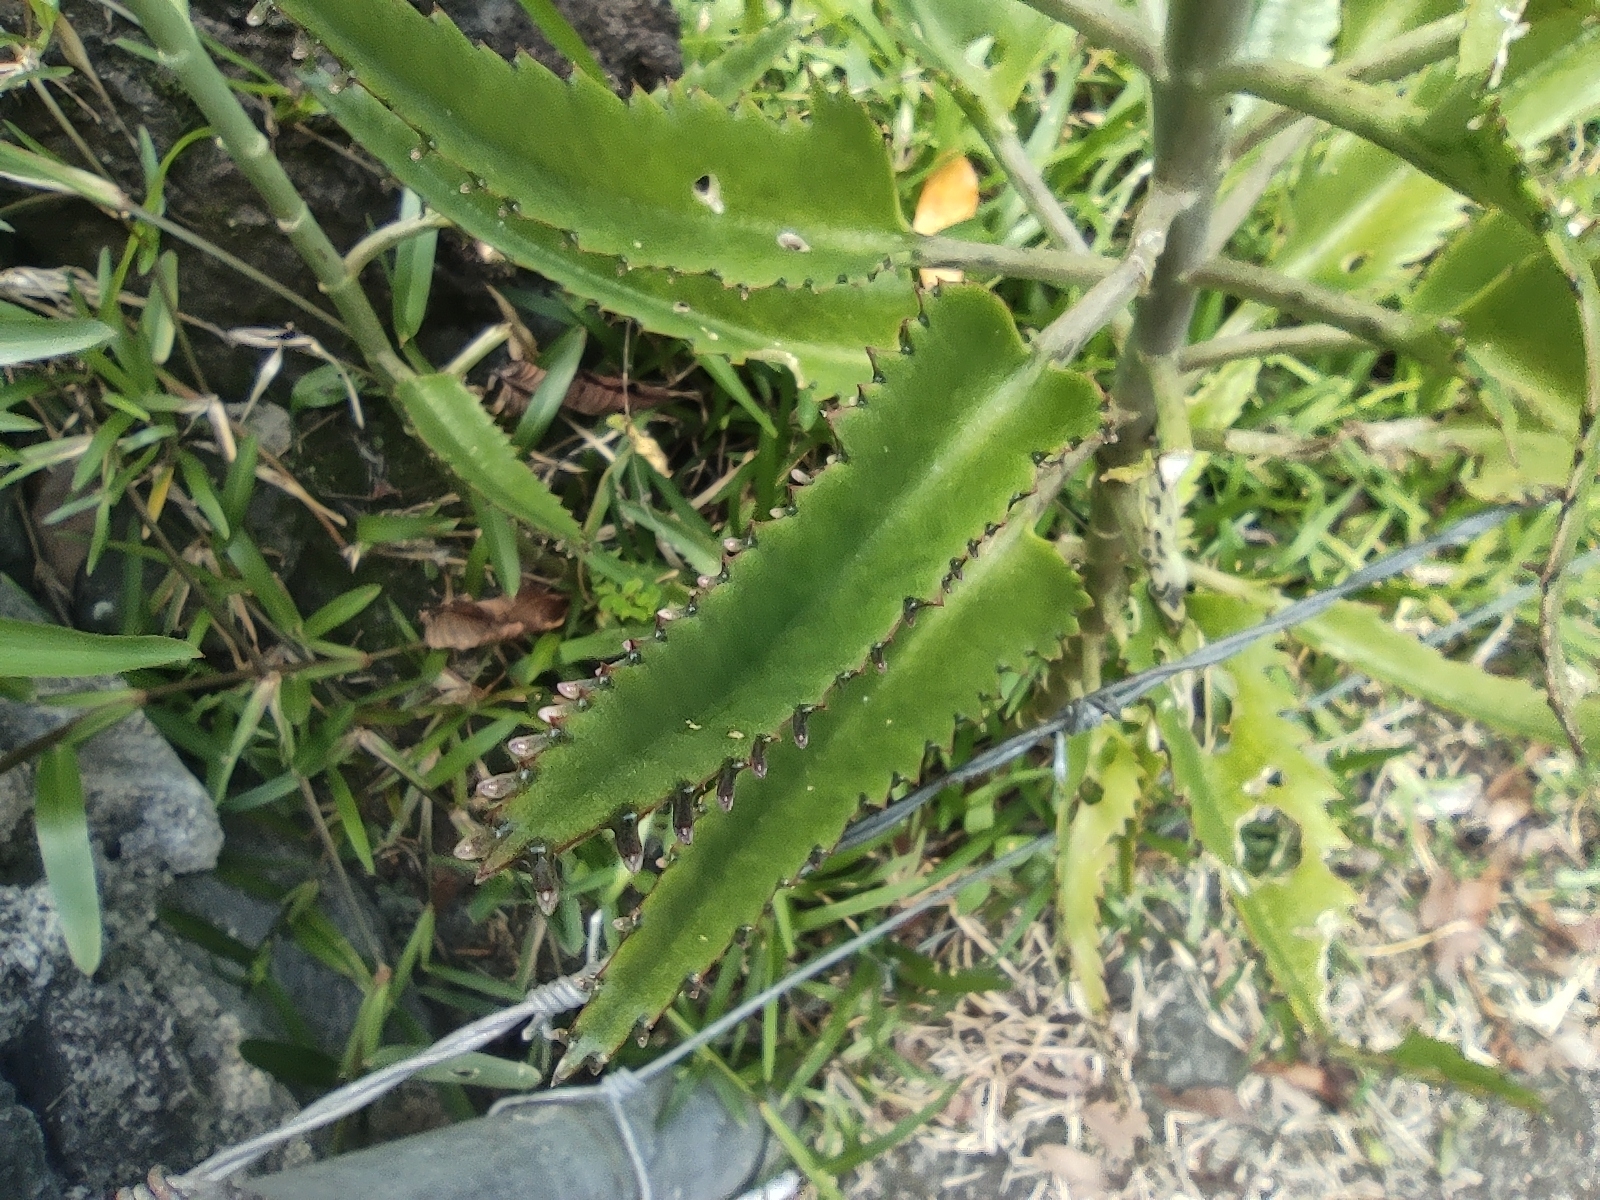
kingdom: Plantae
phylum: Tracheophyta
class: Magnoliopsida
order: Saxifragales
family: Crassulaceae
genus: Kalanchoe
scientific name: Kalanchoe houghtonii
